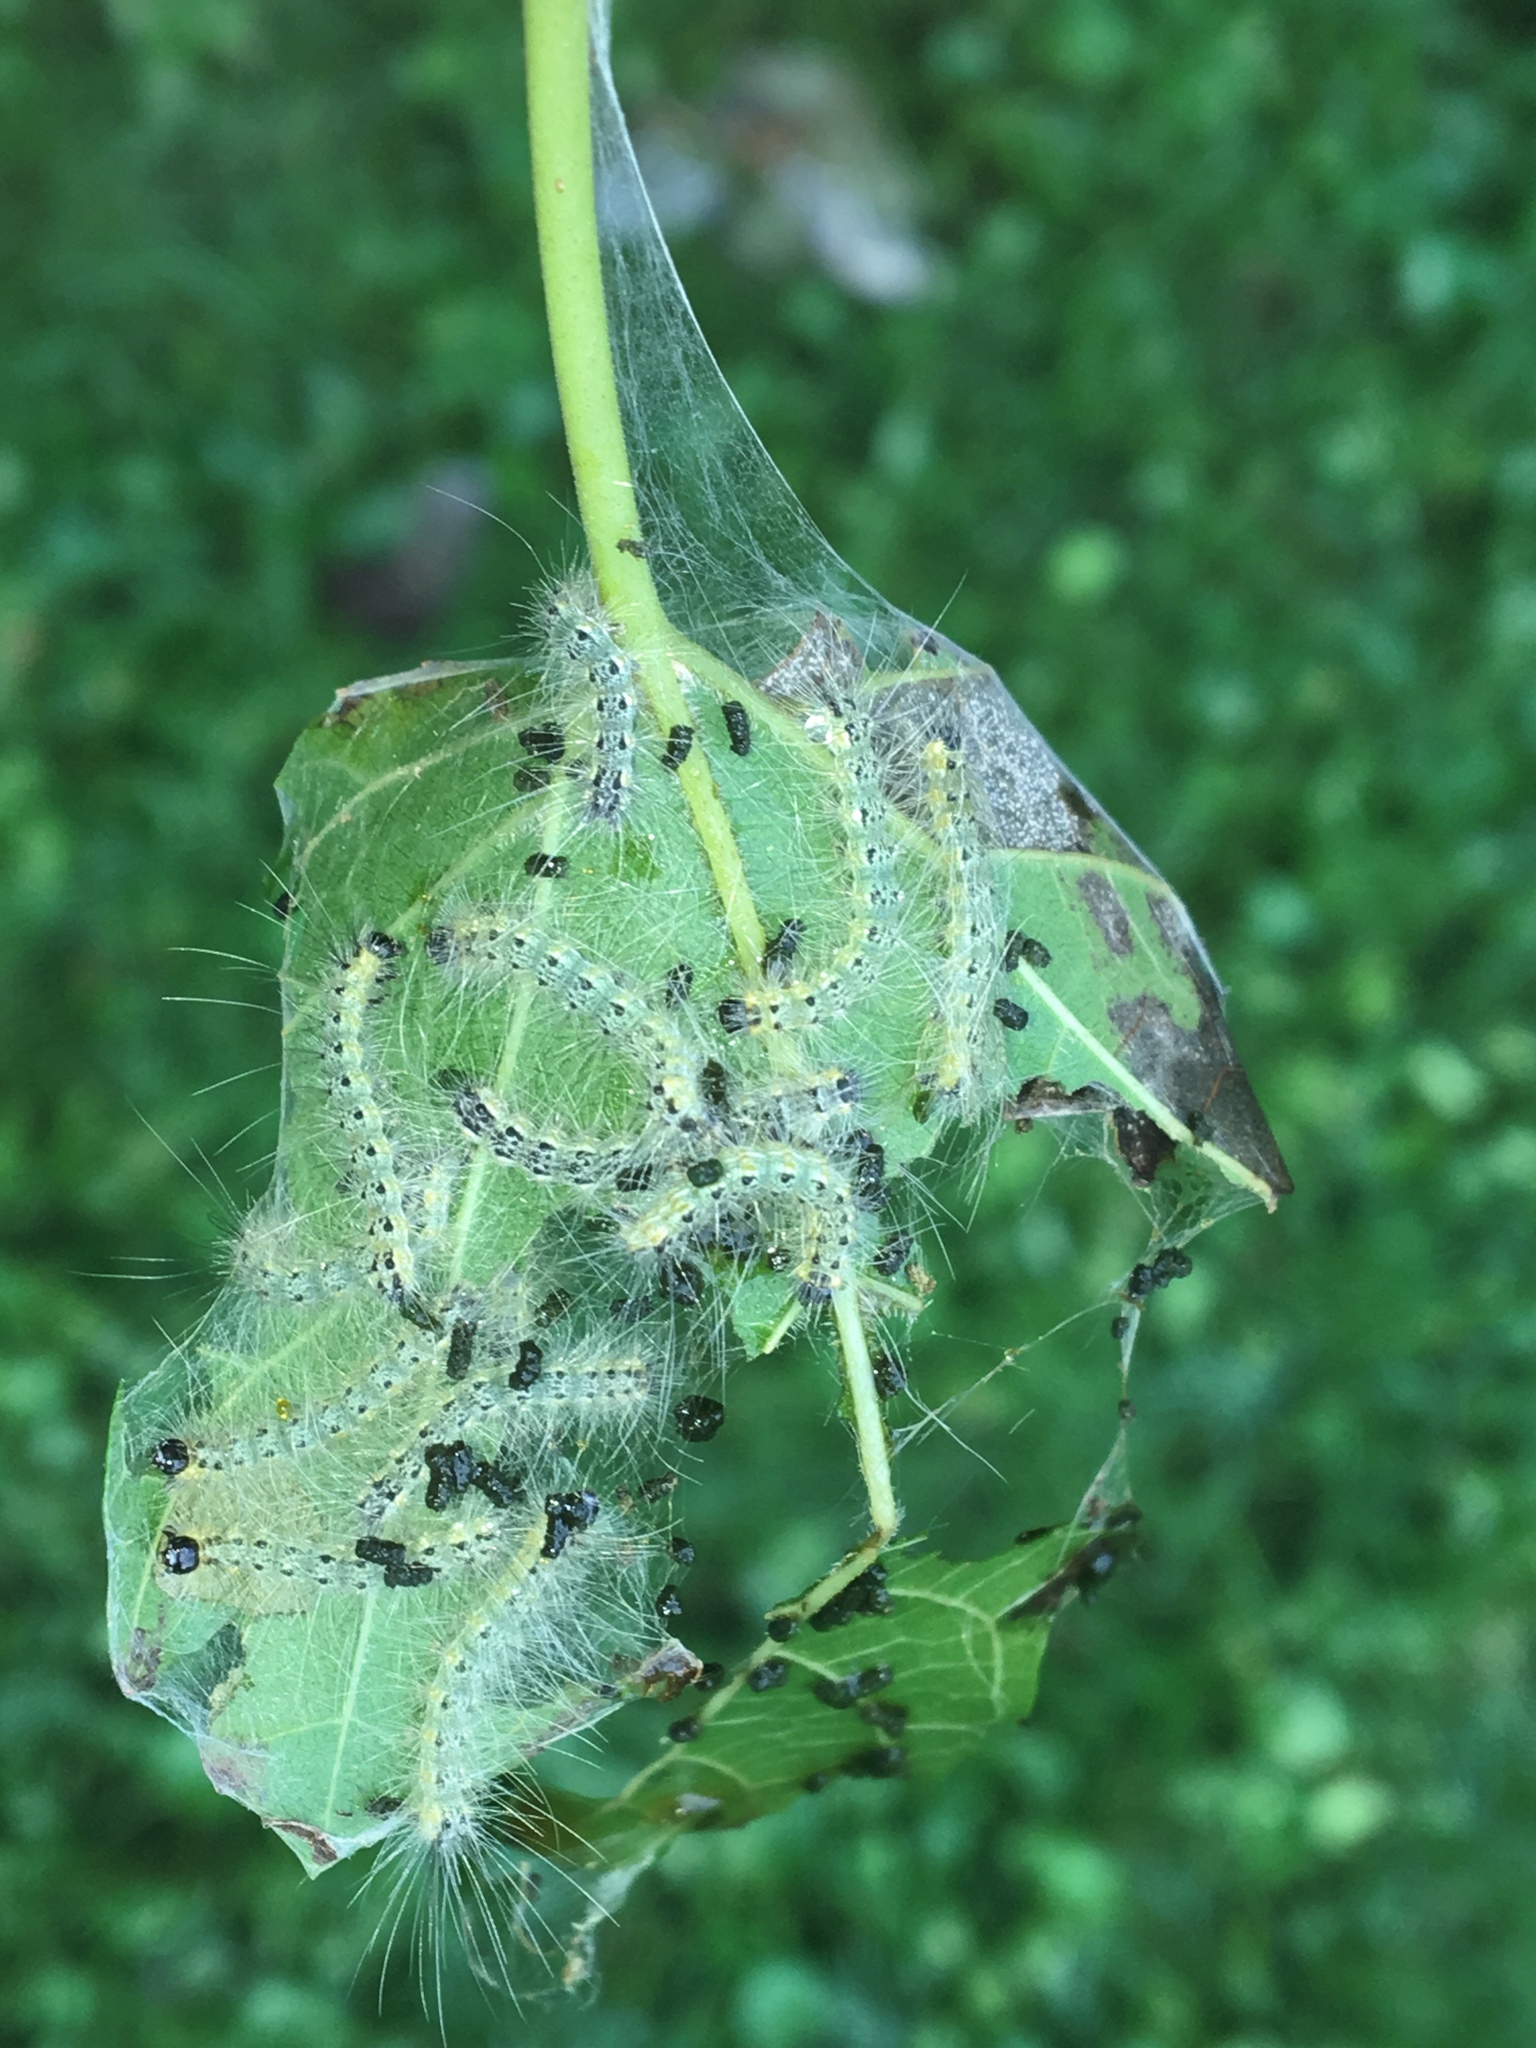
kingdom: Animalia
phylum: Arthropoda
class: Insecta
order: Lepidoptera
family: Erebidae
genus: Hyphantria
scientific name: Hyphantria cunea
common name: American white moth
